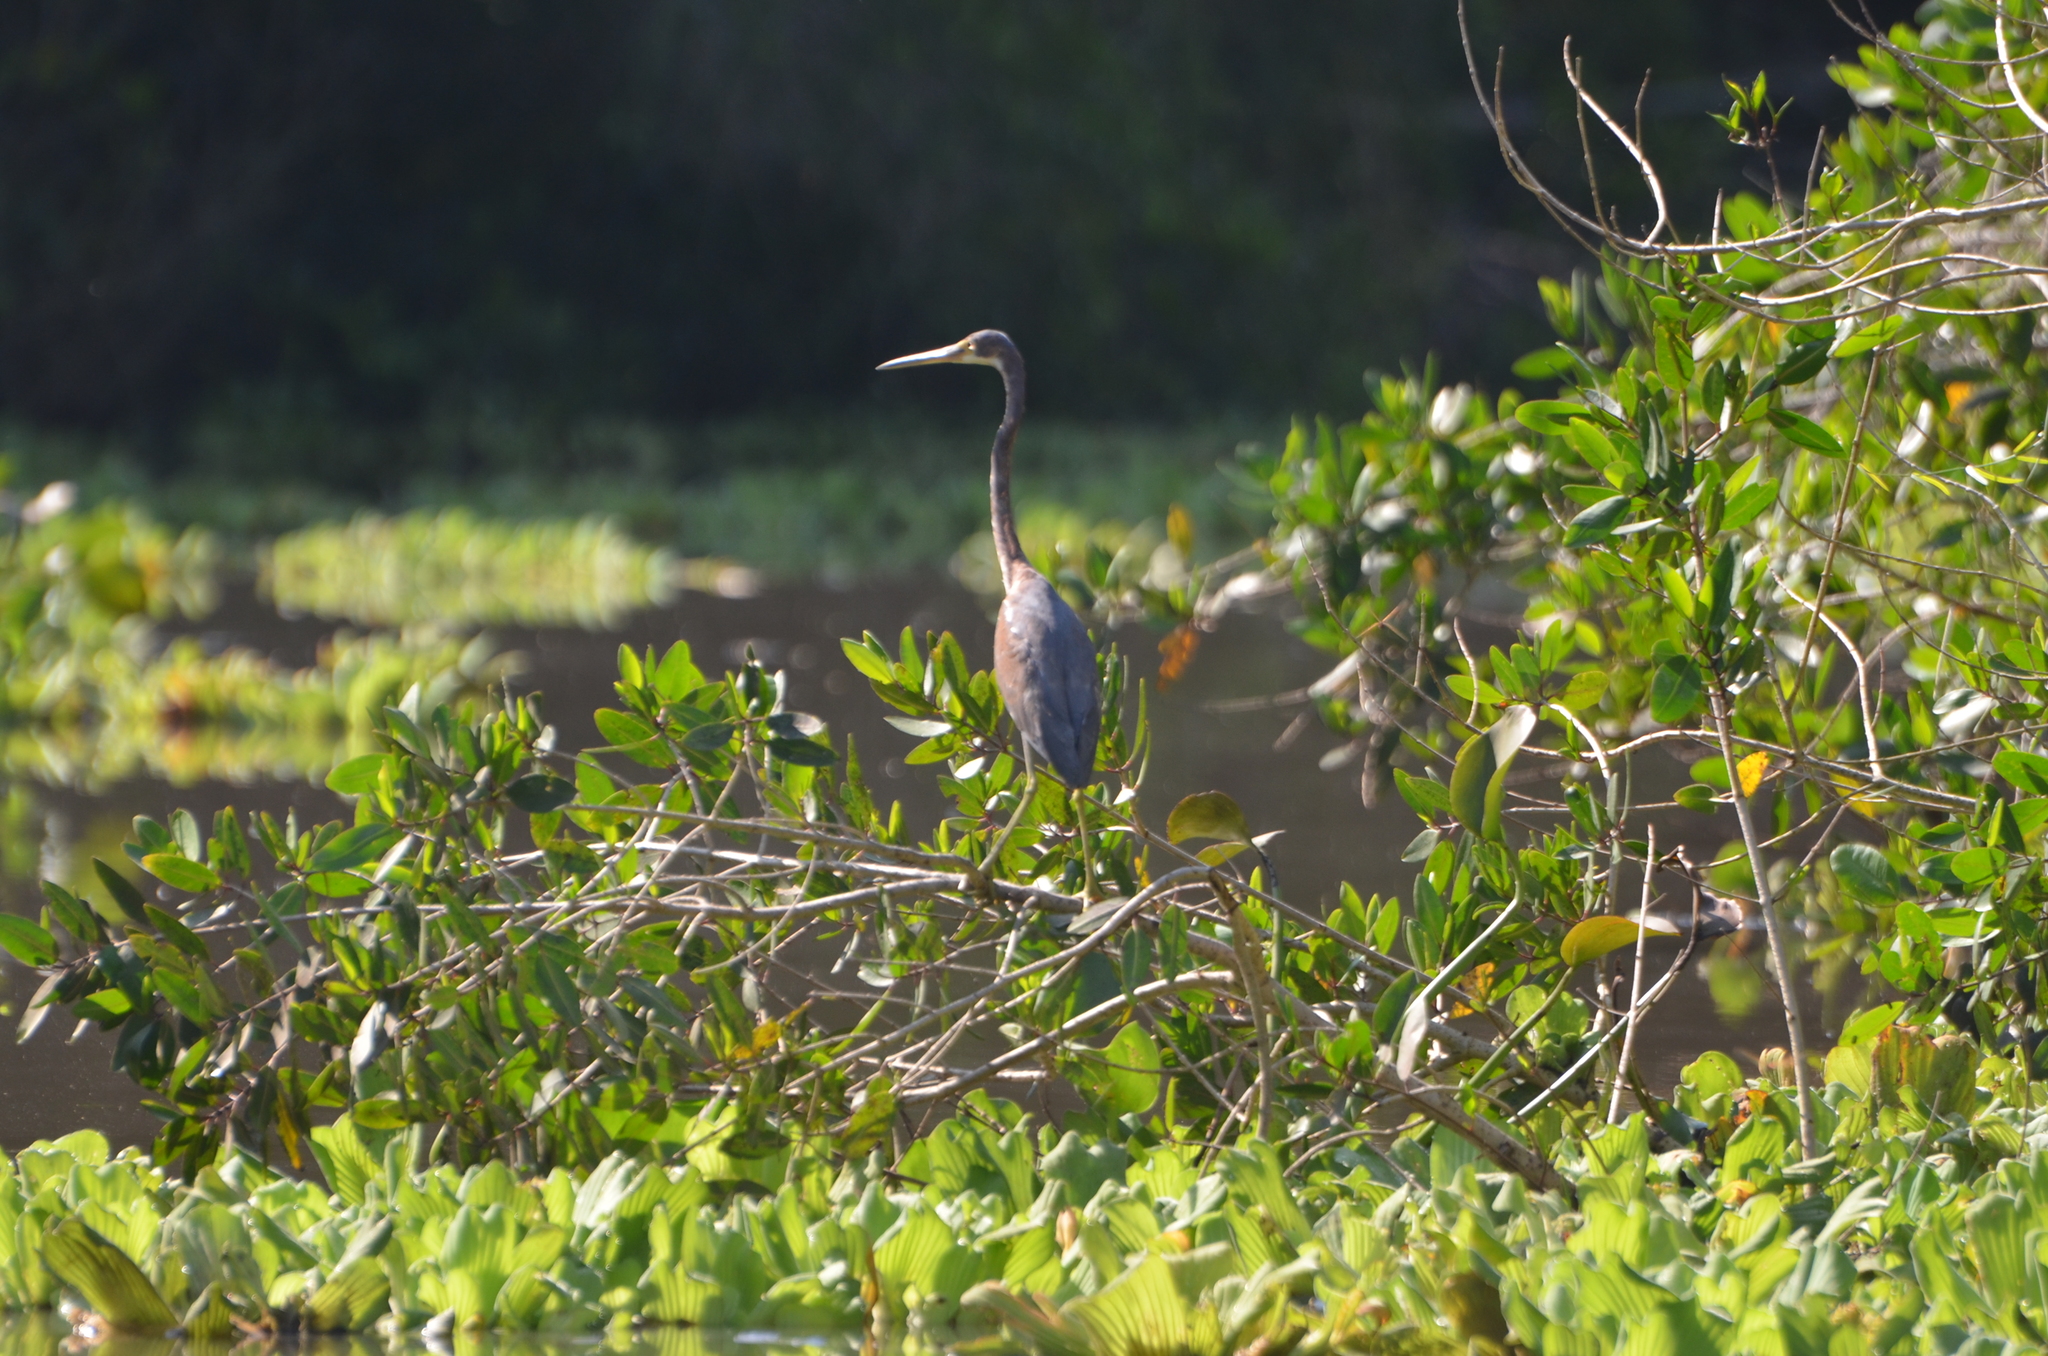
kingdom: Animalia
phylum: Chordata
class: Aves
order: Pelecaniformes
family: Ardeidae
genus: Egretta
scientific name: Egretta tricolor
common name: Tricolored heron
